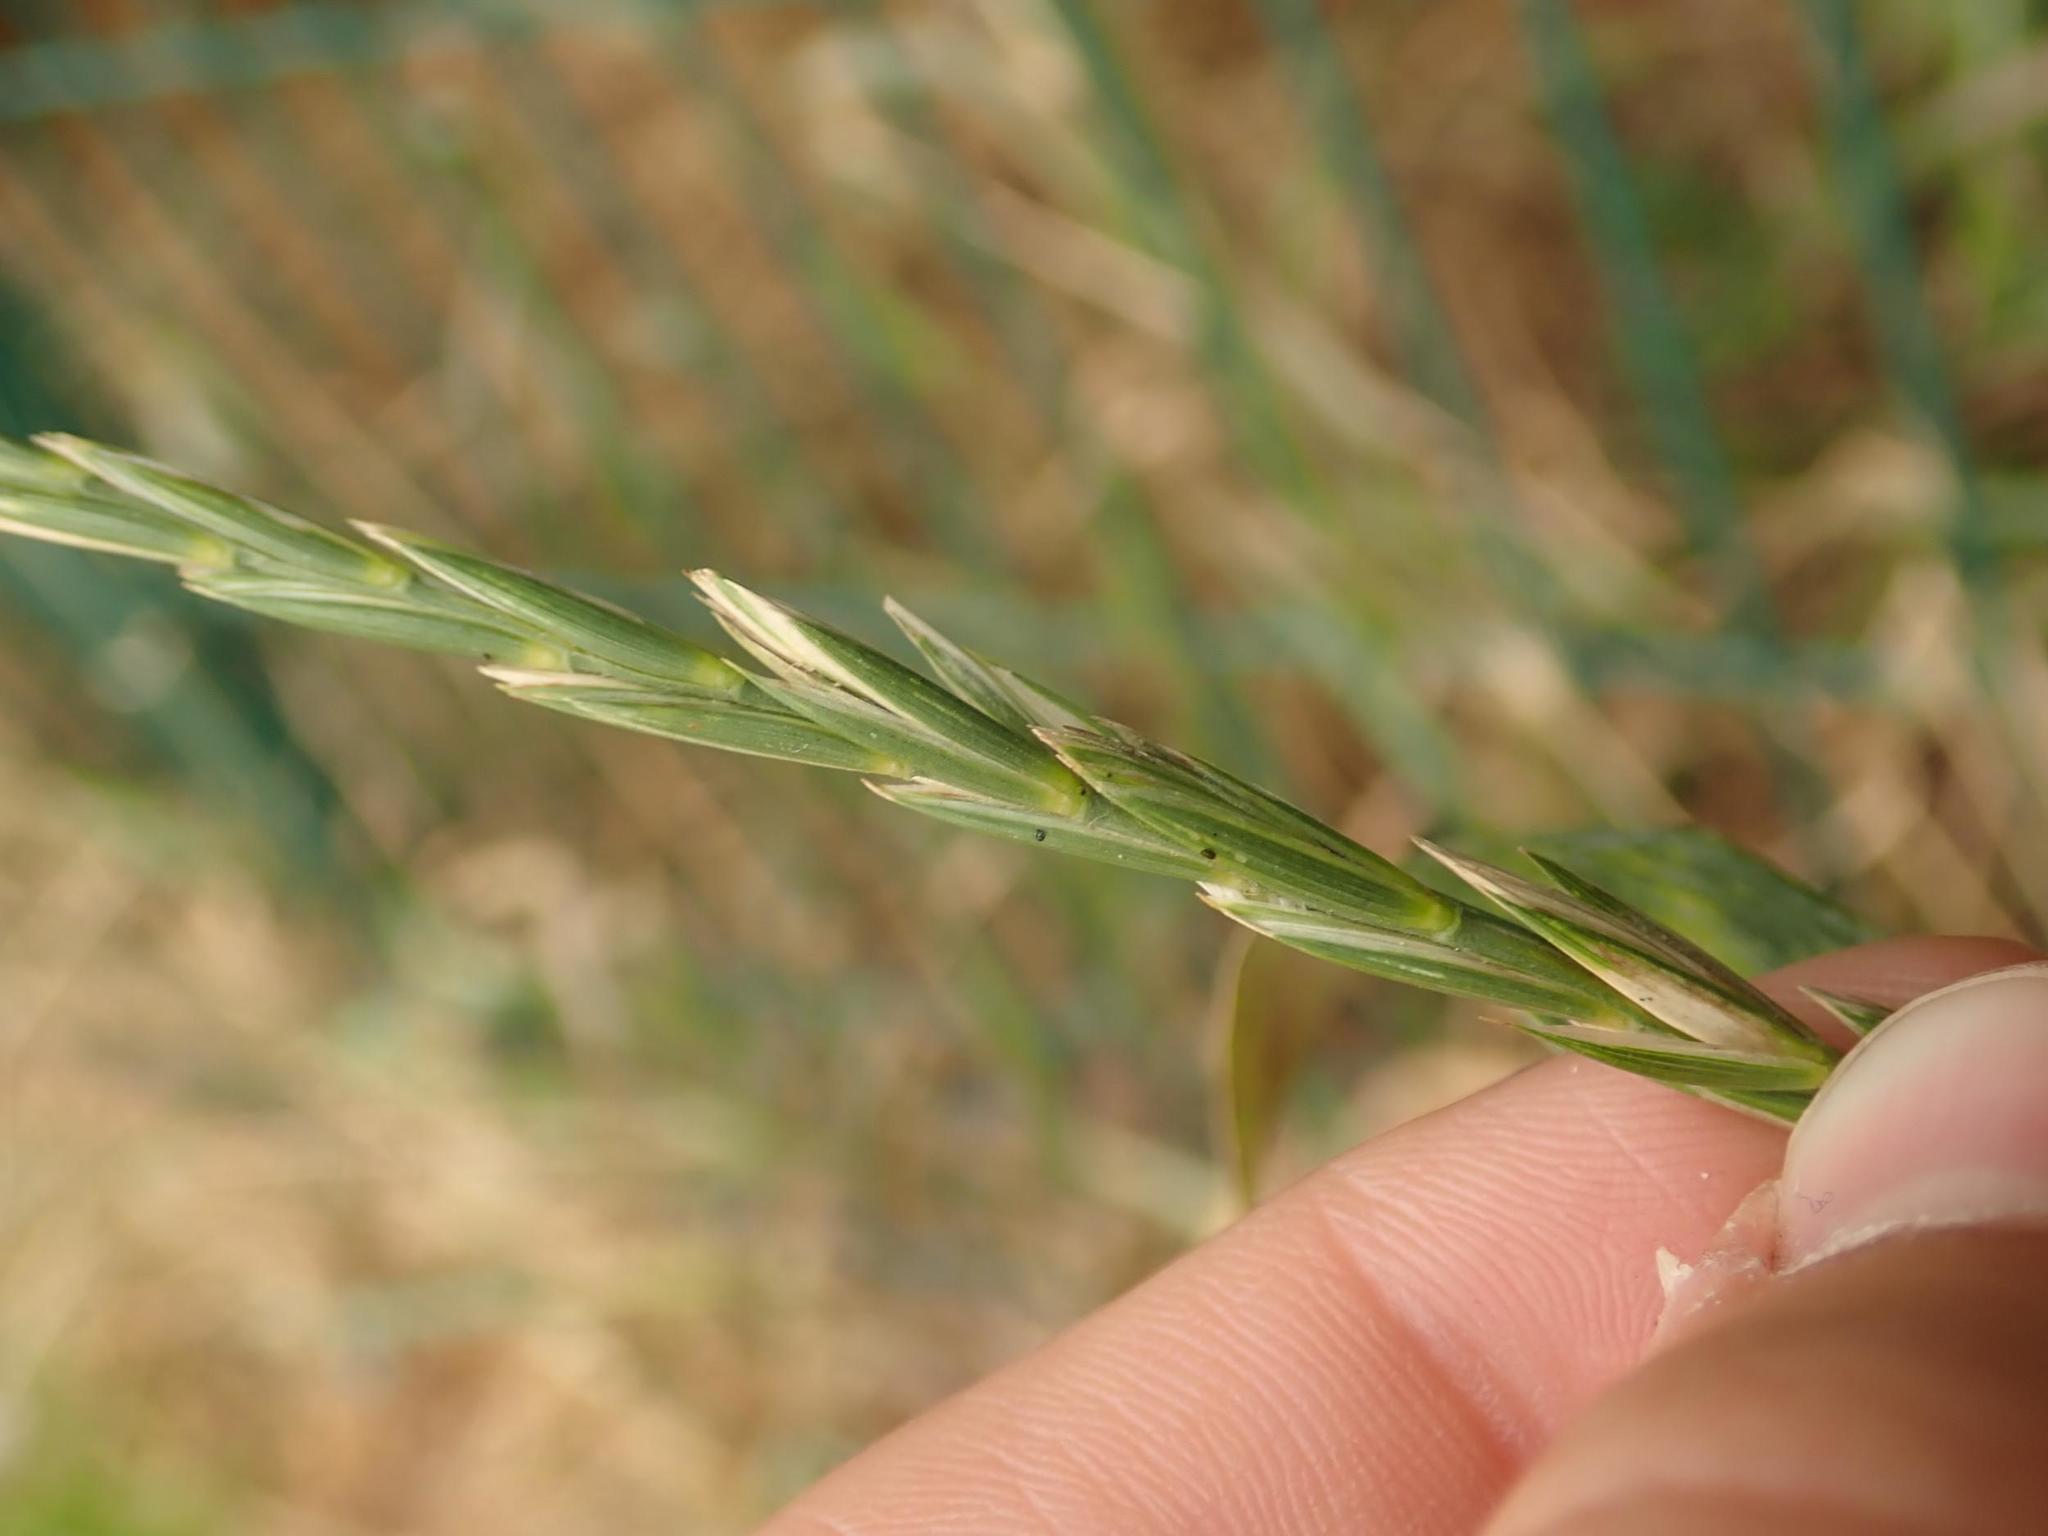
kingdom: Plantae
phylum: Tracheophyta
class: Liliopsida
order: Poales
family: Poaceae
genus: Elymus
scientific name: Elymus repens
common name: Quackgrass
